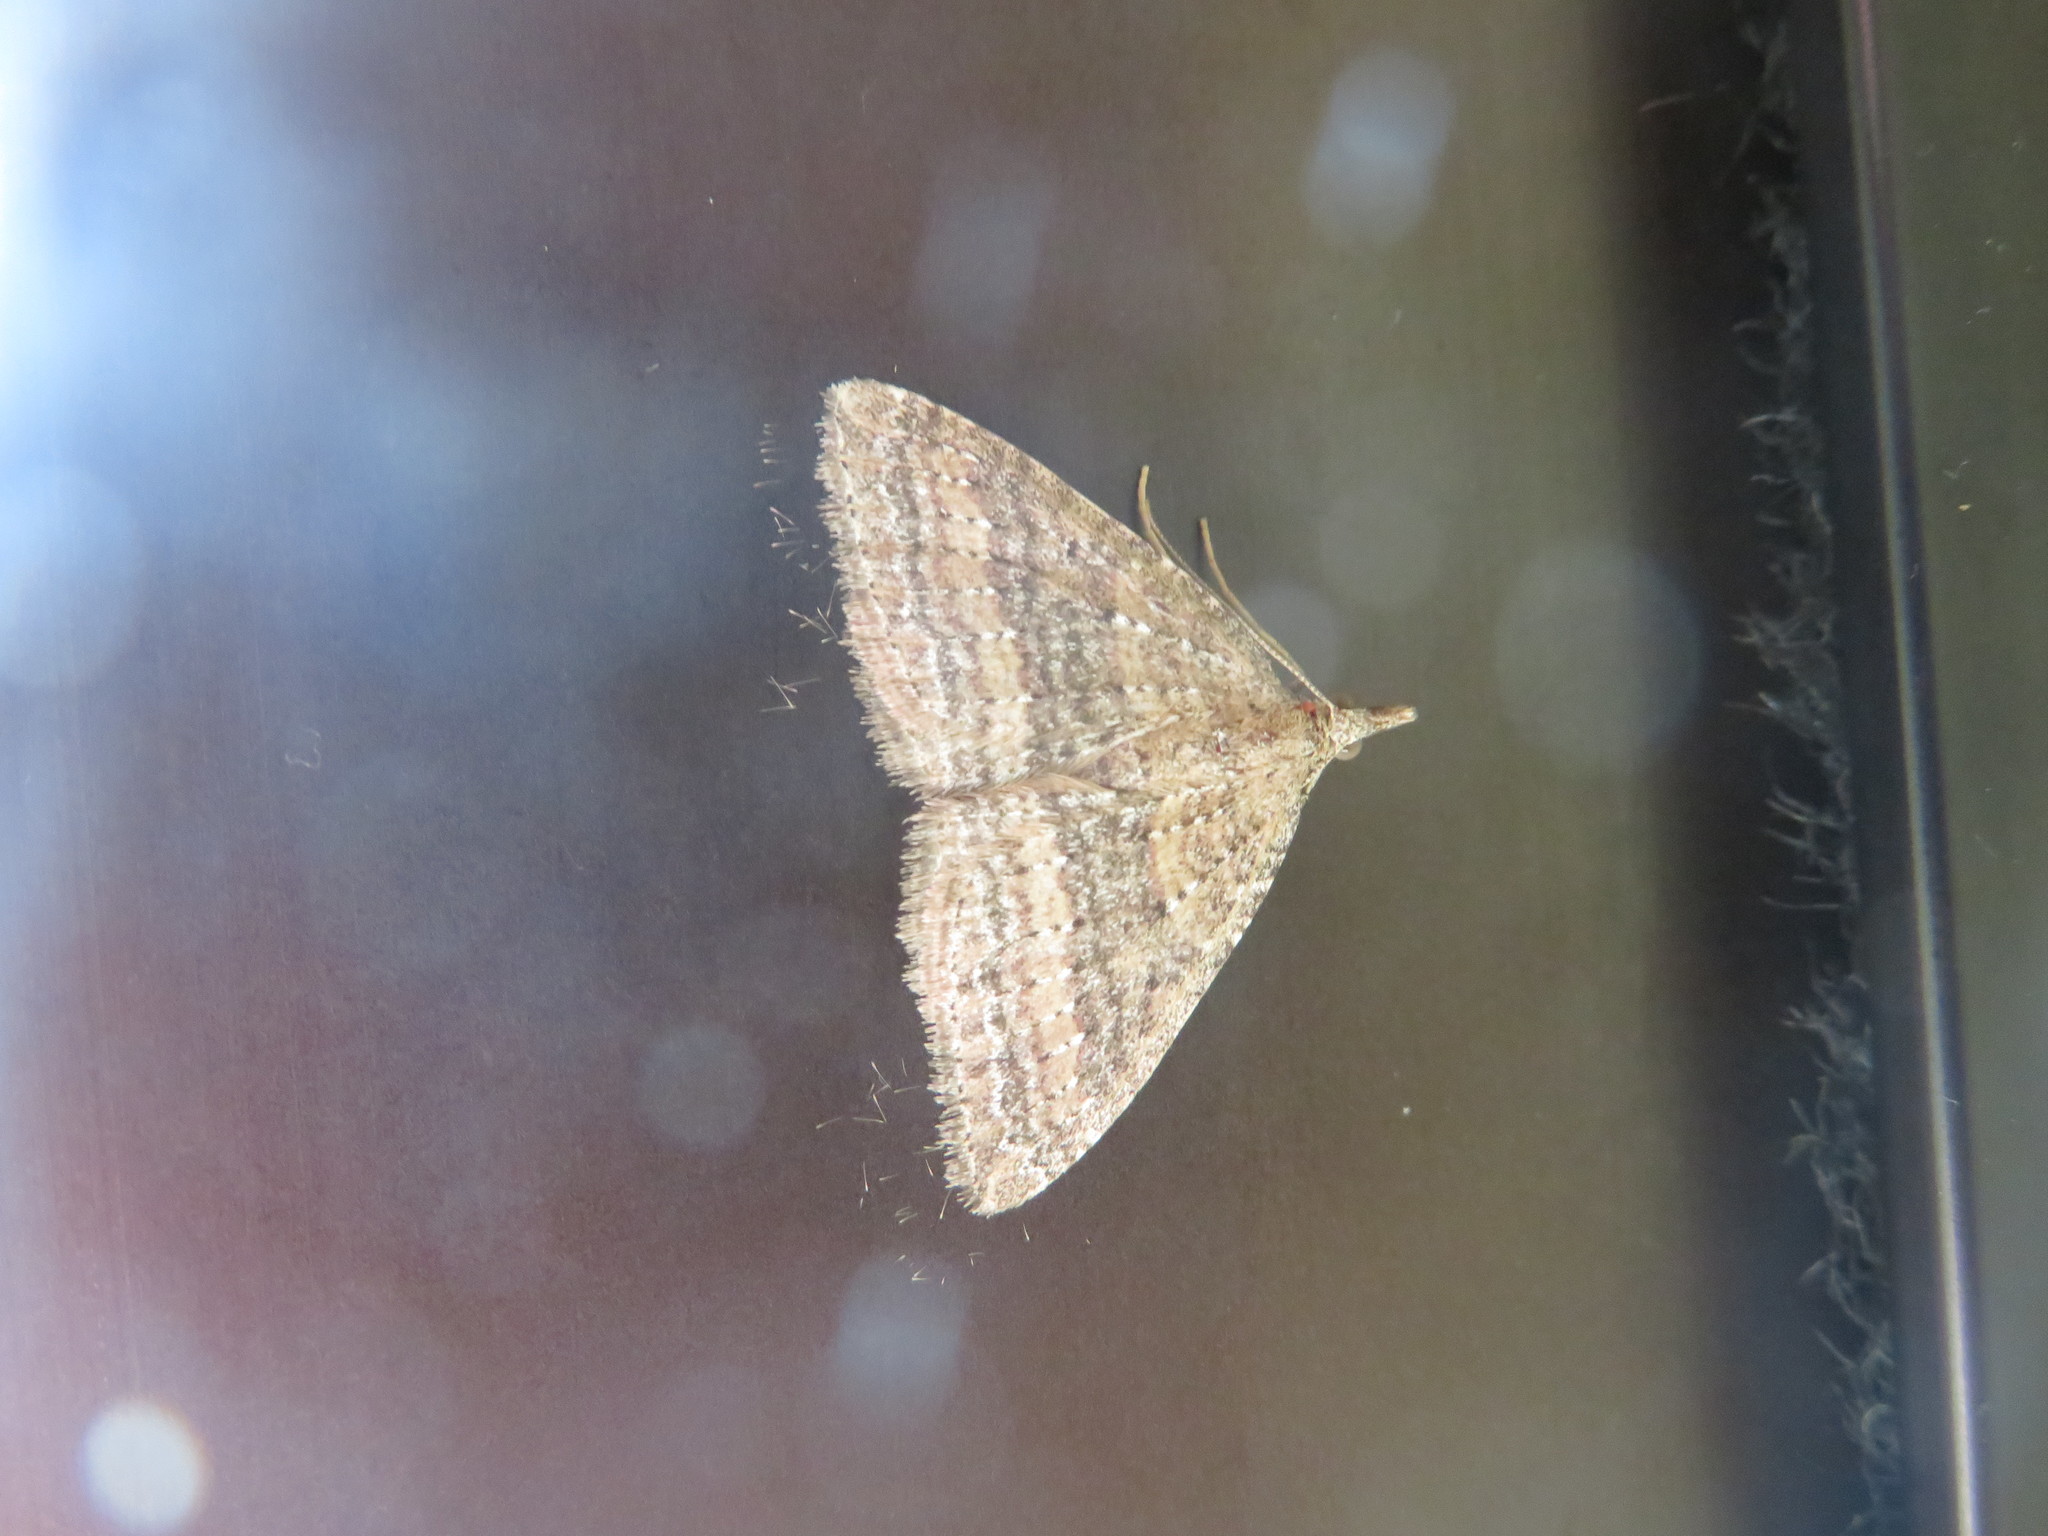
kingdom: Animalia
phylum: Arthropoda
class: Insecta
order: Lepidoptera
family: Geometridae
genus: Epyaxa
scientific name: Epyaxa venipunctata
